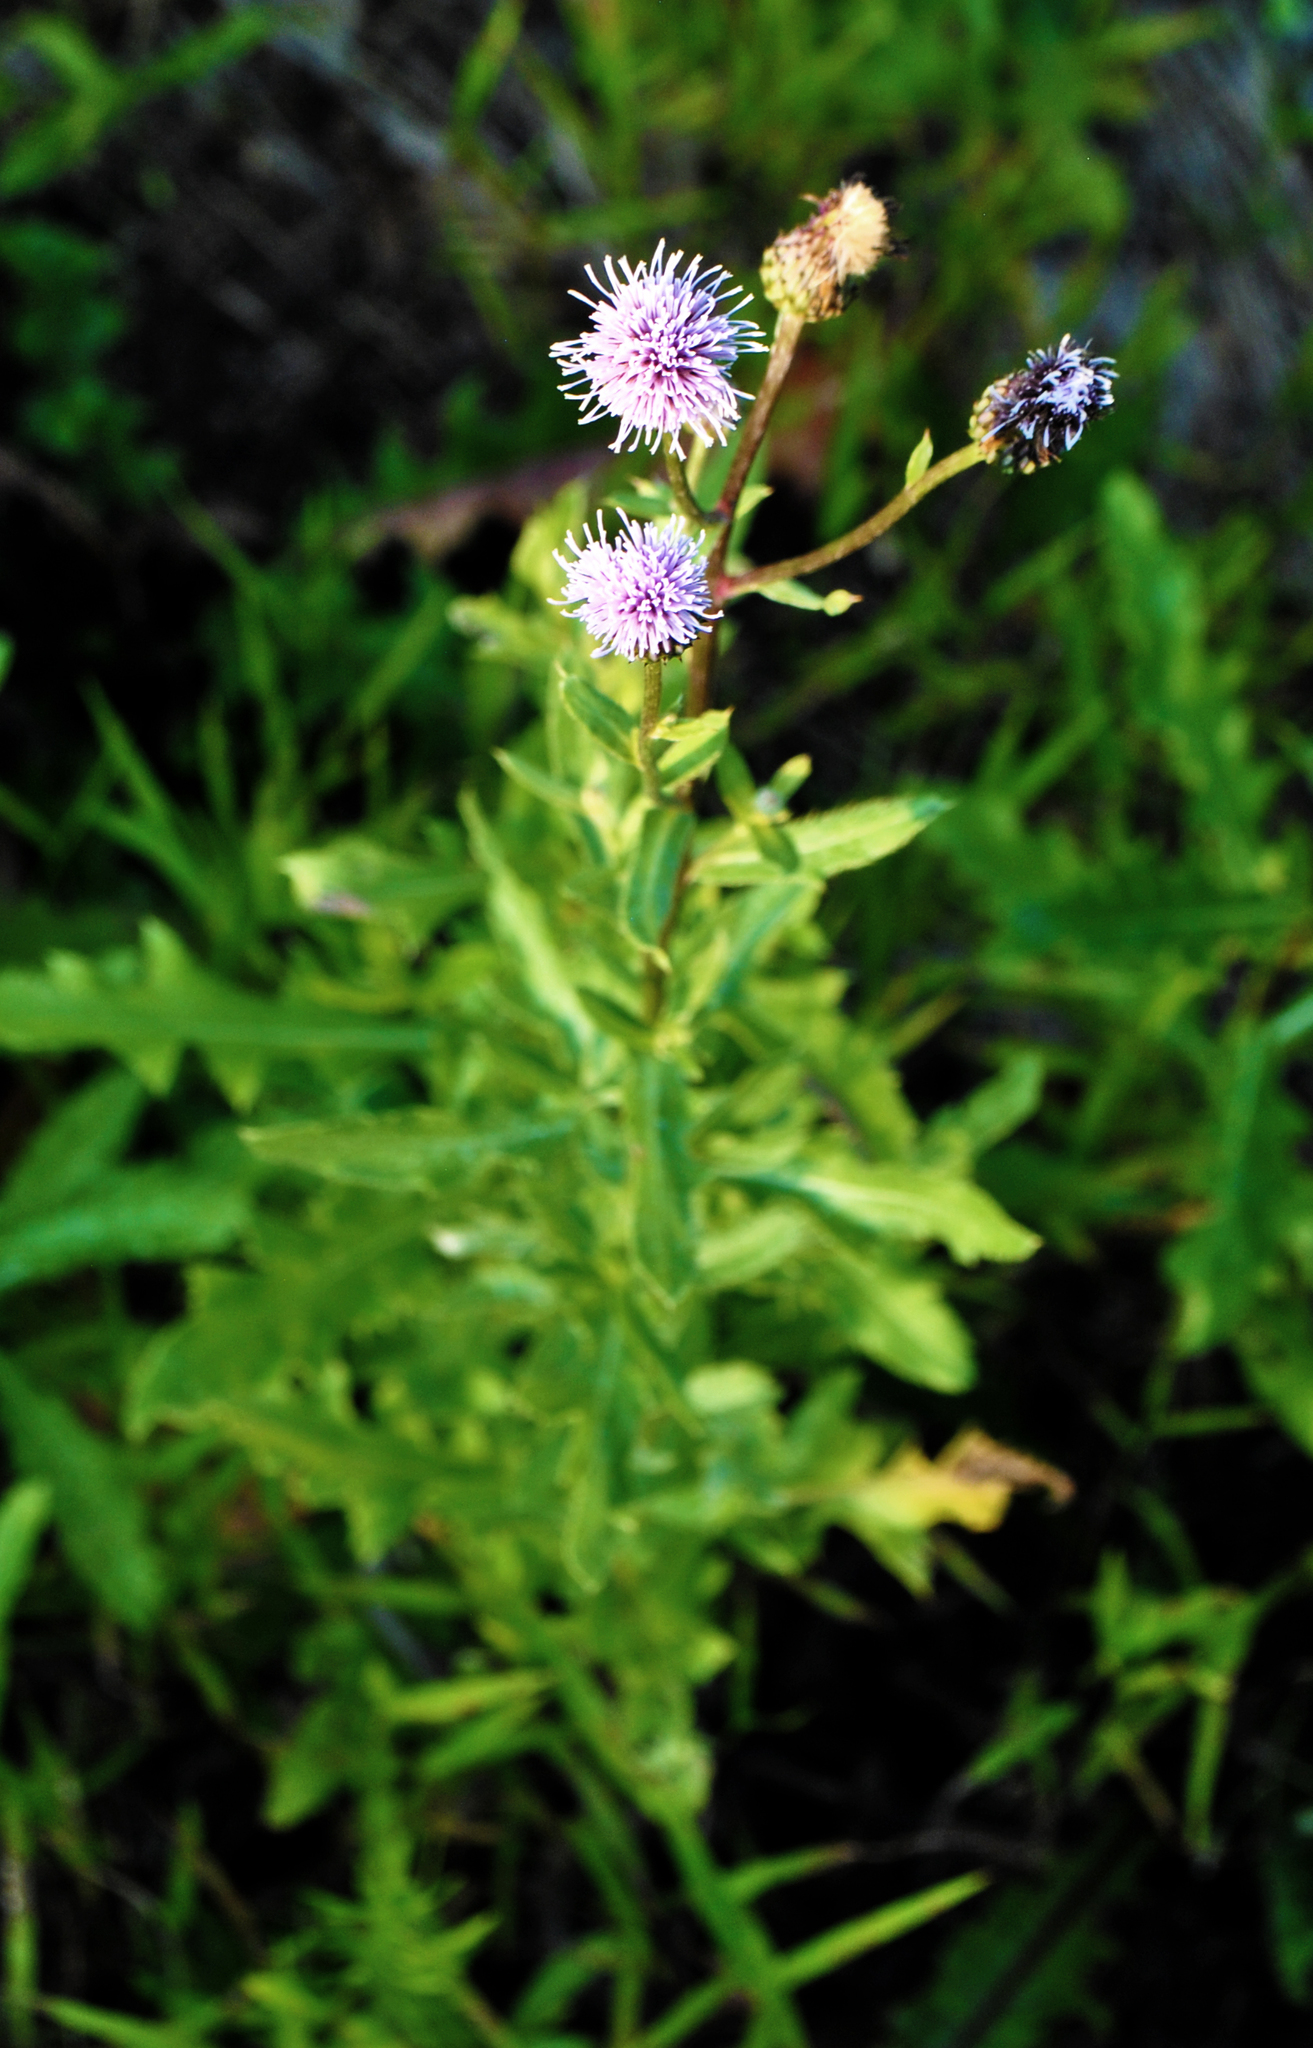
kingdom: Plantae
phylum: Tracheophyta
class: Magnoliopsida
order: Asterales
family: Asteraceae
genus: Cirsium
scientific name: Cirsium arvense
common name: Creeping thistle
